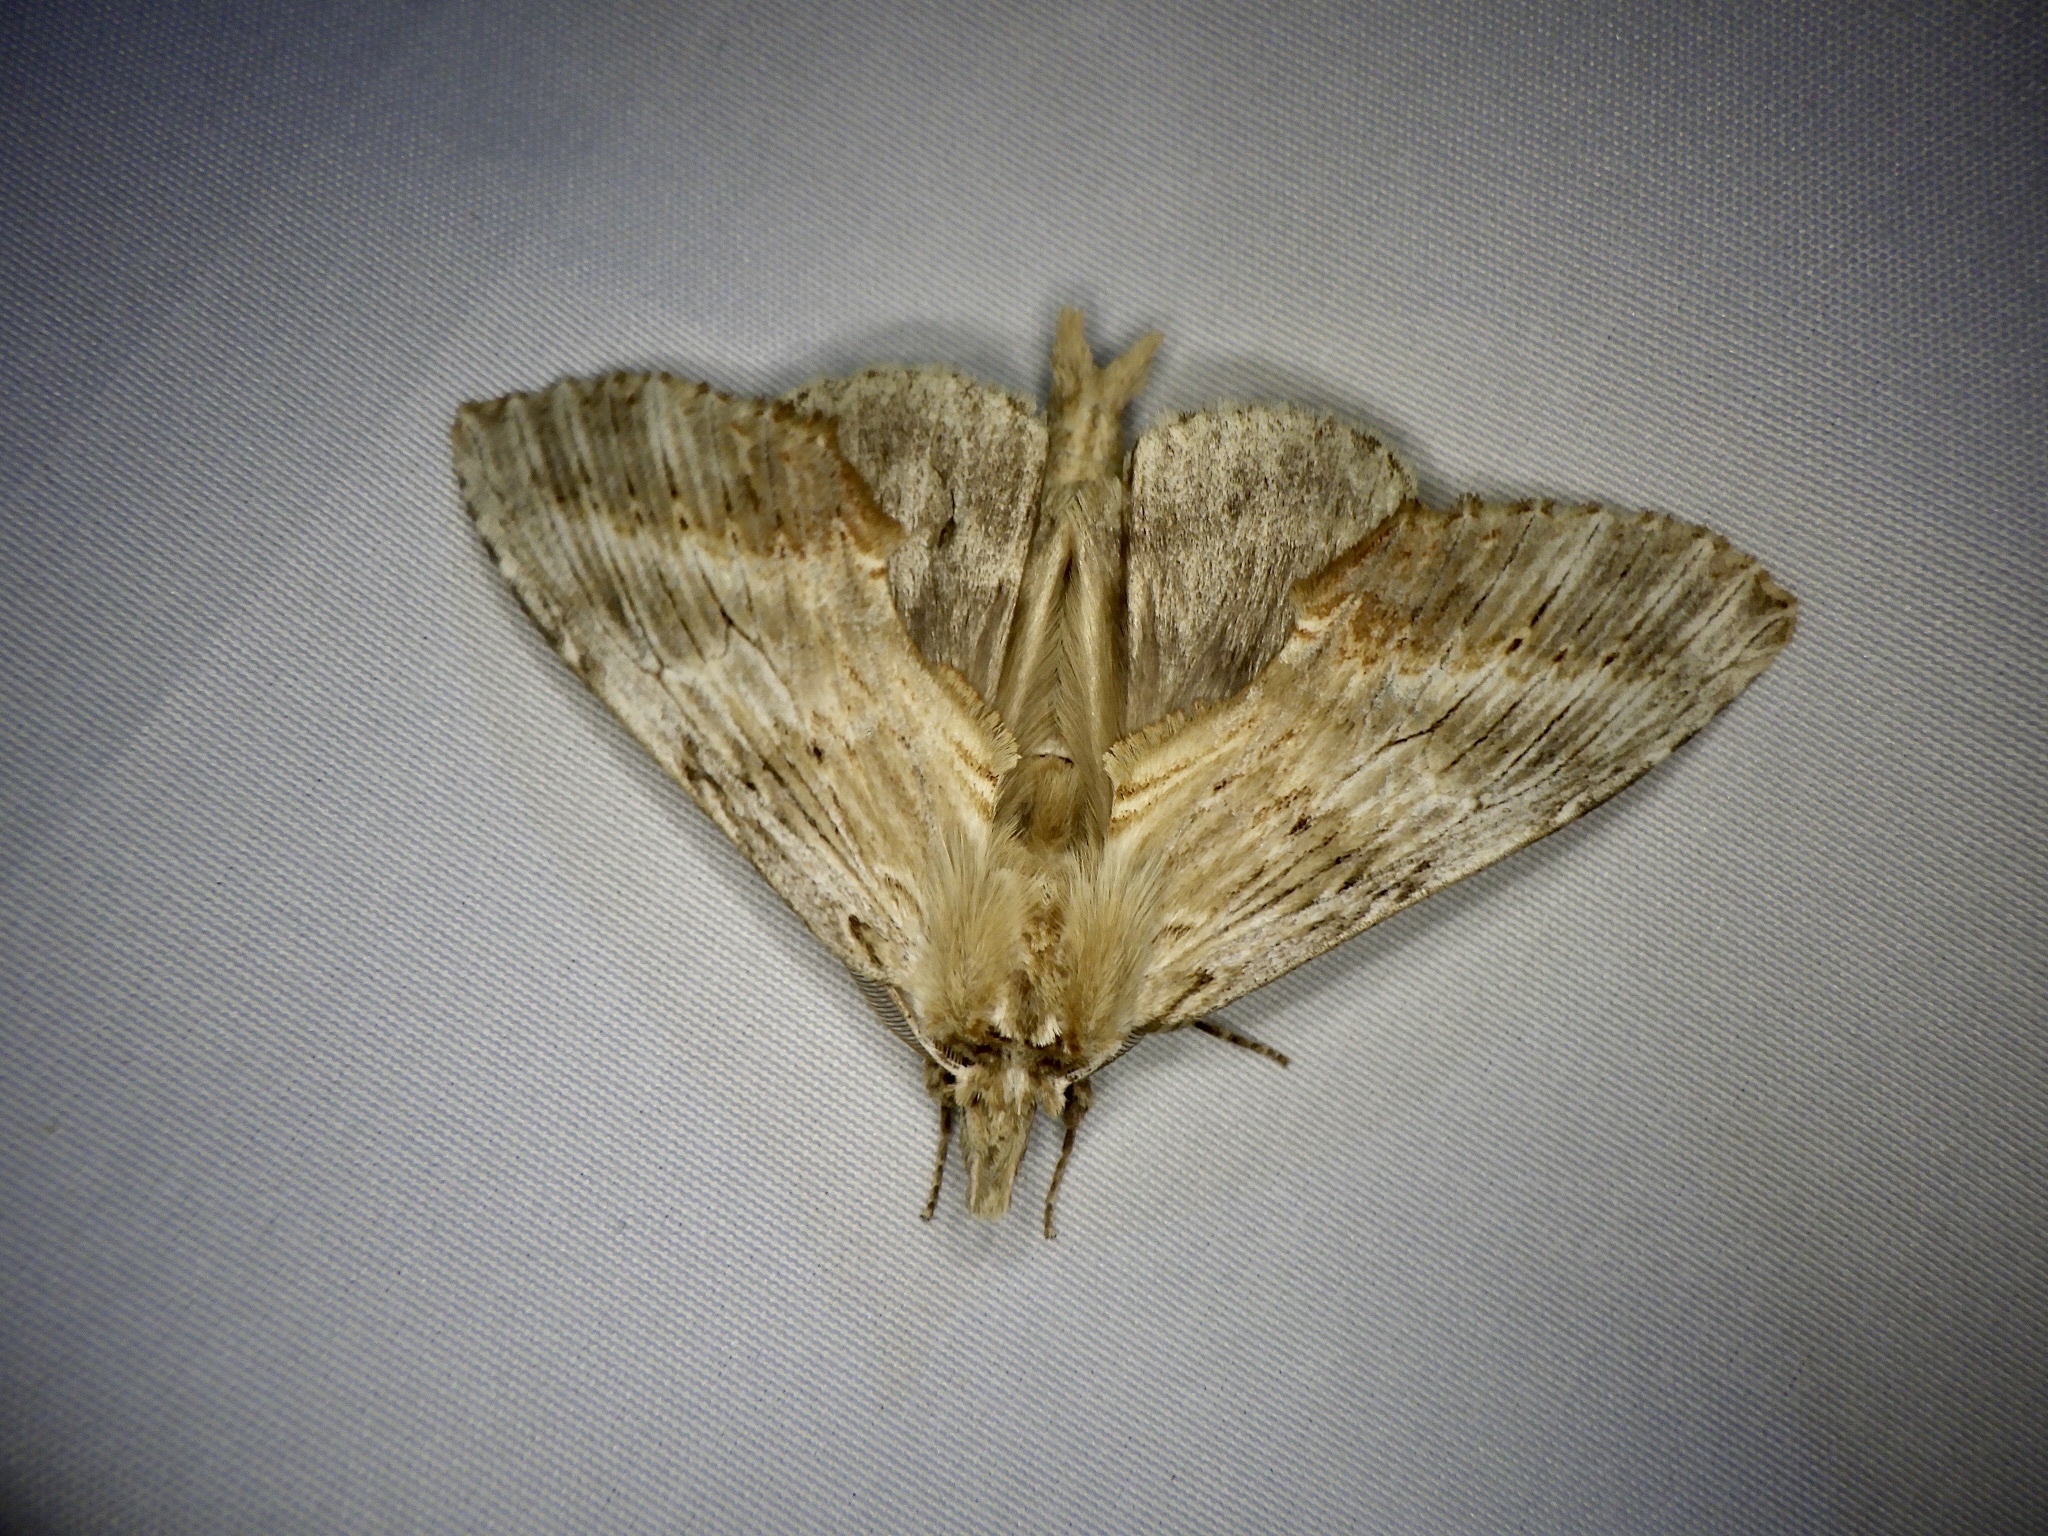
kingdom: Animalia
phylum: Arthropoda
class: Insecta
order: Lepidoptera
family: Notodontidae
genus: Pterostoma
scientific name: Pterostoma gigantina
